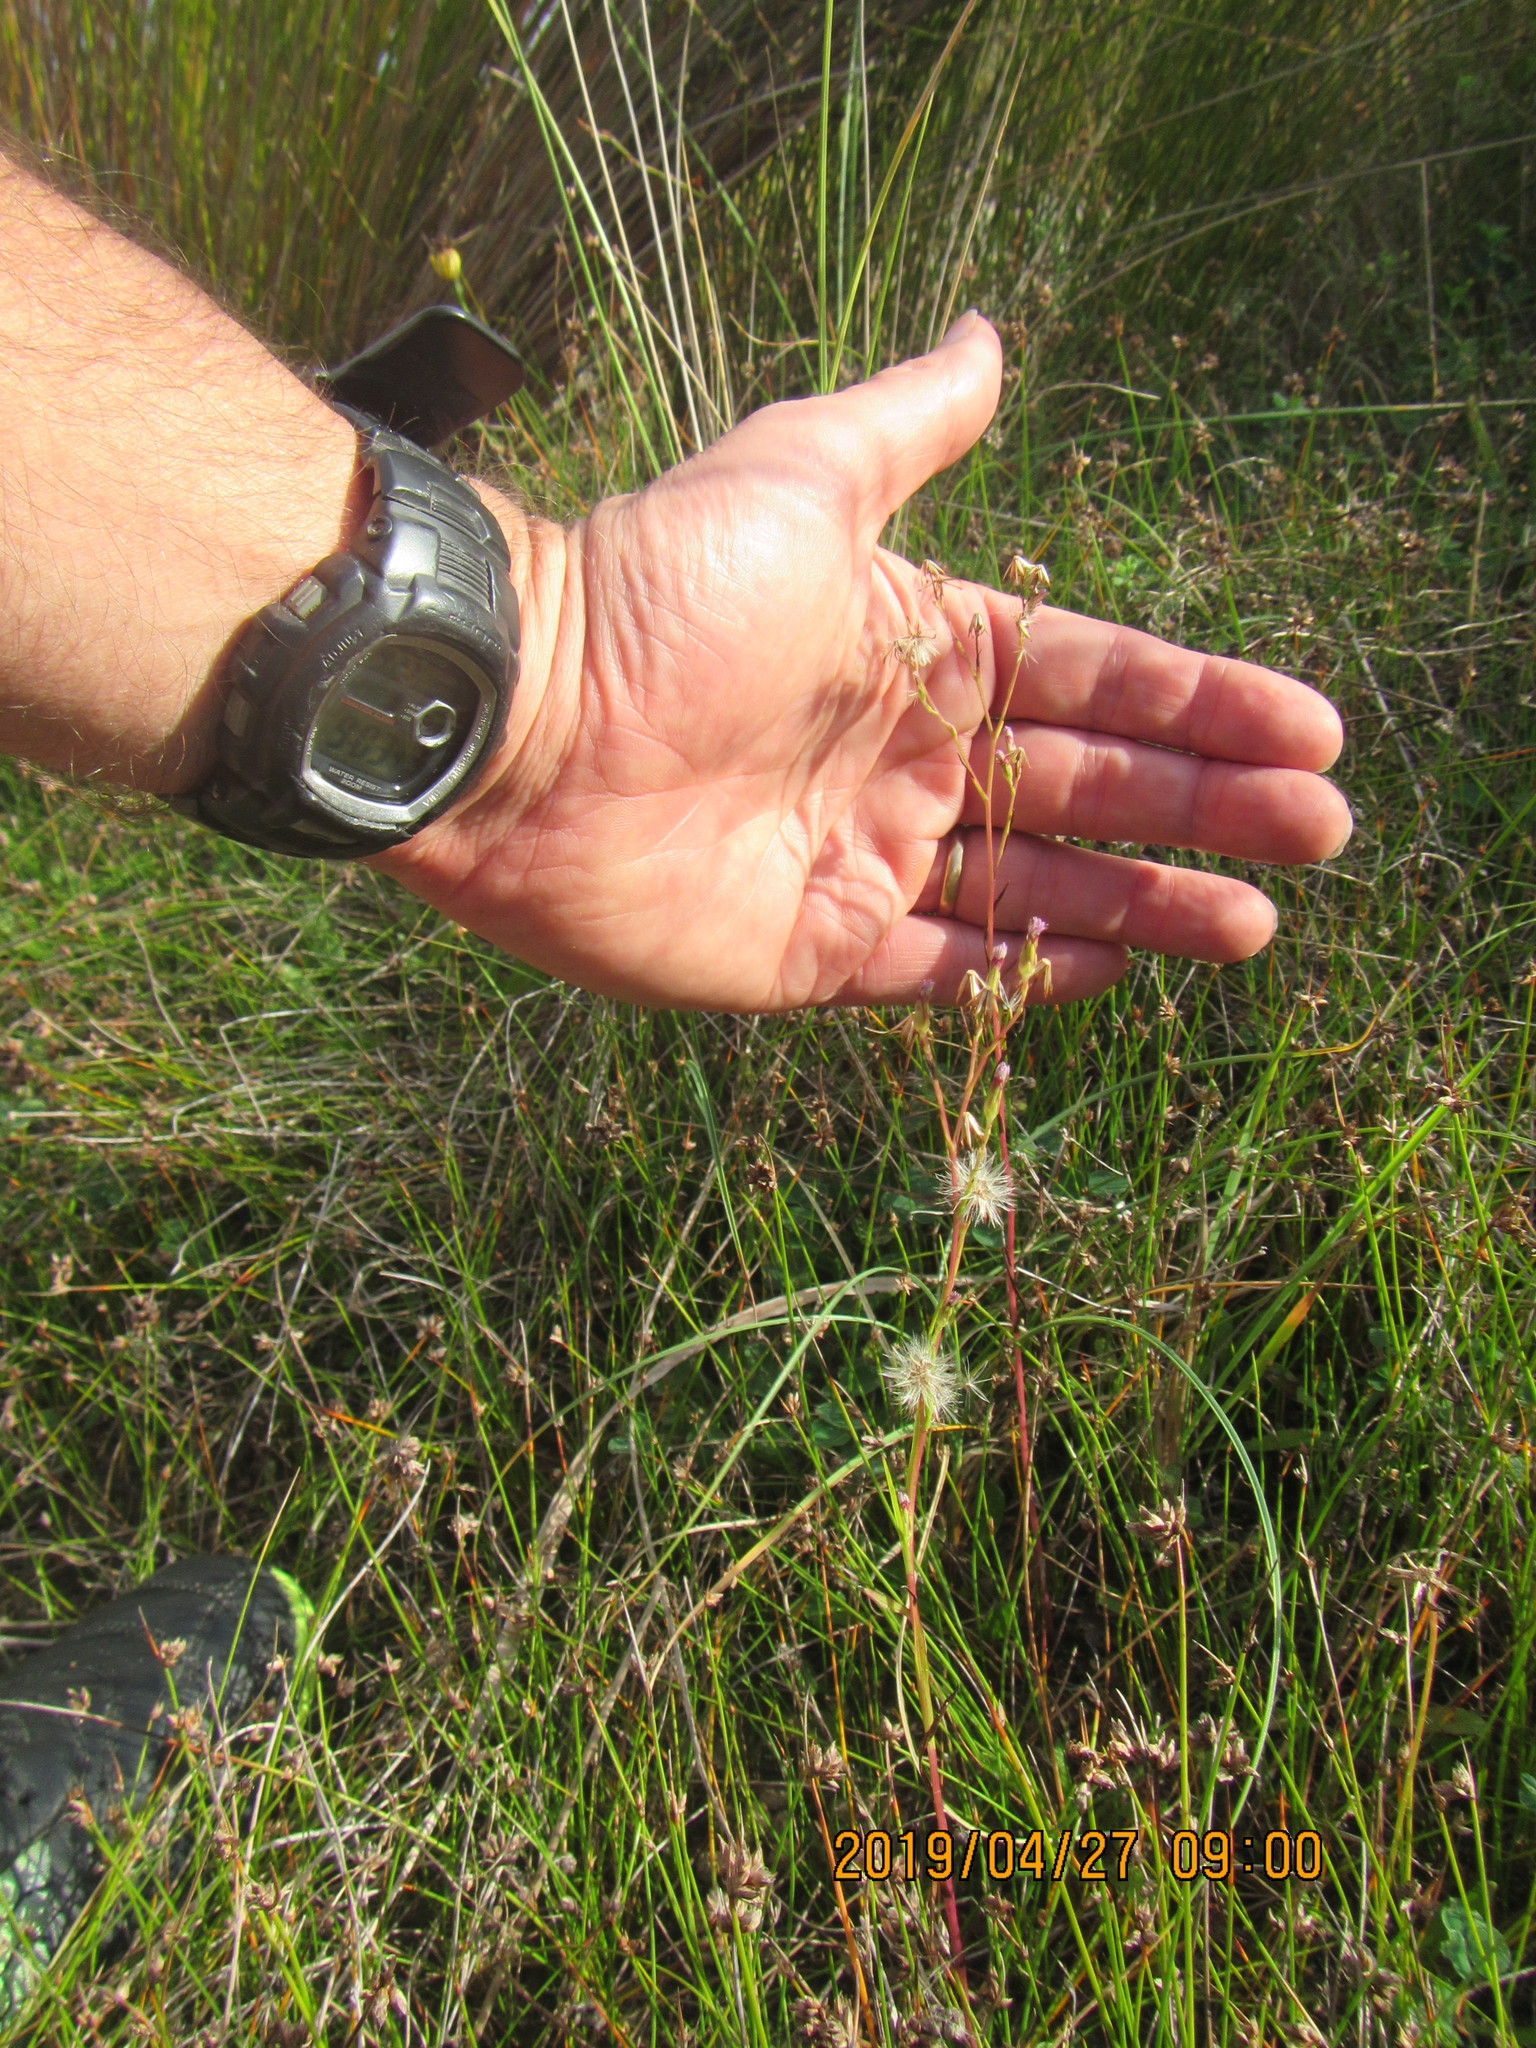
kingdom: Plantae
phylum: Tracheophyta
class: Magnoliopsida
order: Asterales
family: Asteraceae
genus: Symphyotrichum
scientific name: Symphyotrichum subulatum
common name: Annual saltmarsh aster
